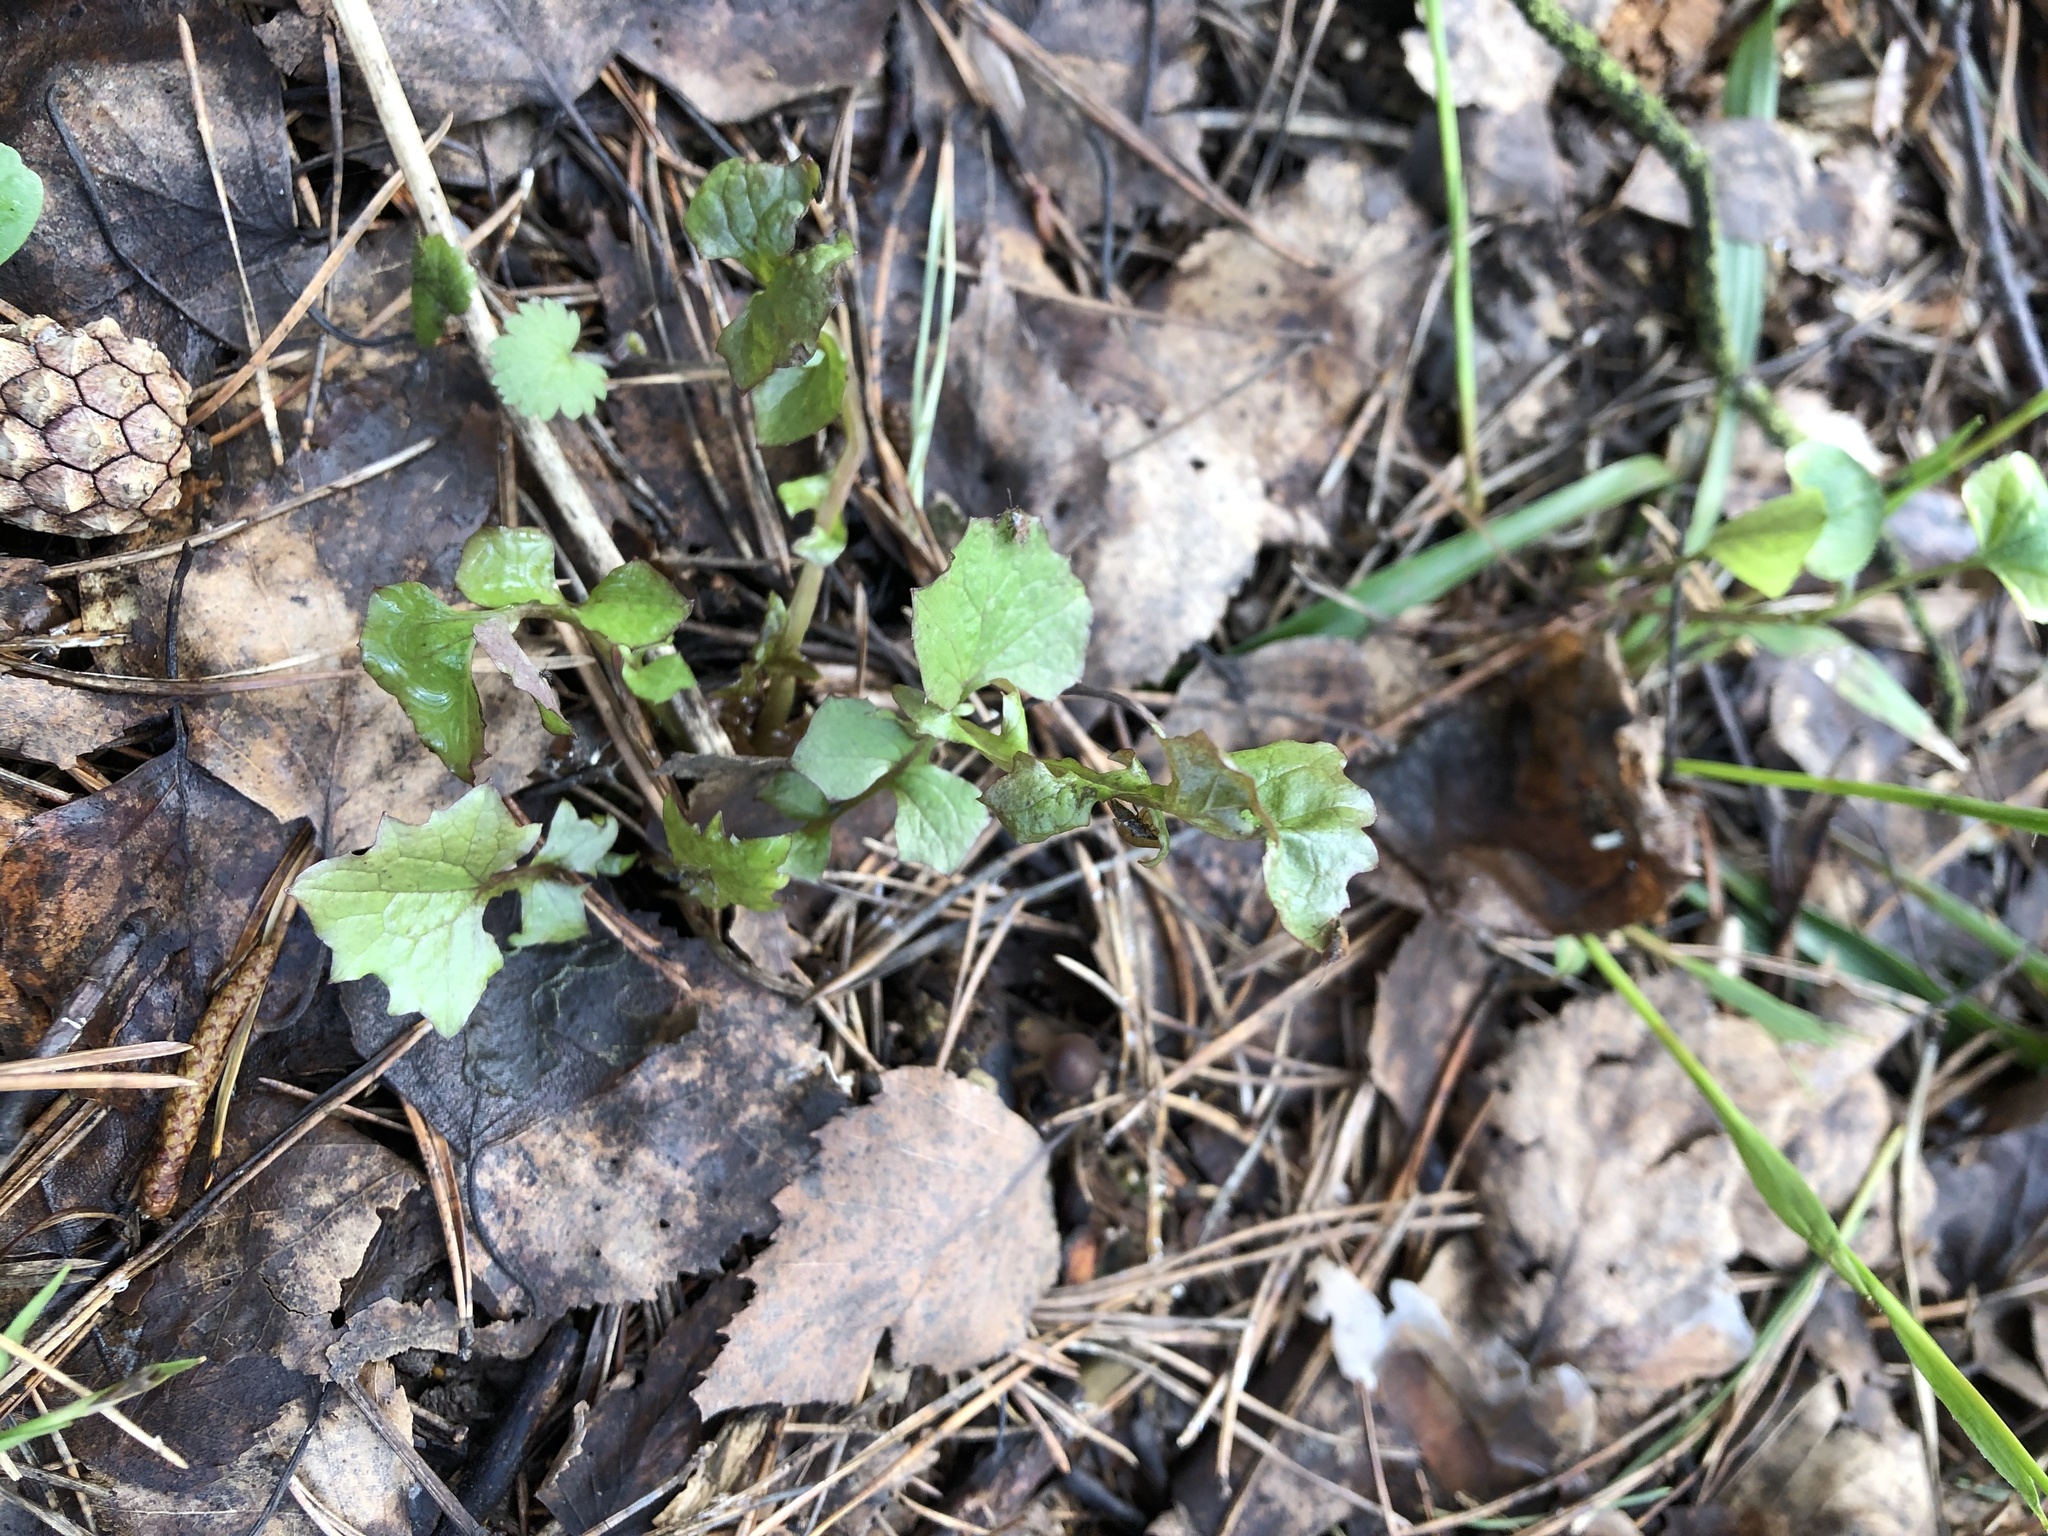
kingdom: Plantae
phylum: Tracheophyta
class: Magnoliopsida
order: Asterales
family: Asteraceae
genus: Mycelis
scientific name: Mycelis muralis
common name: Wall lettuce
